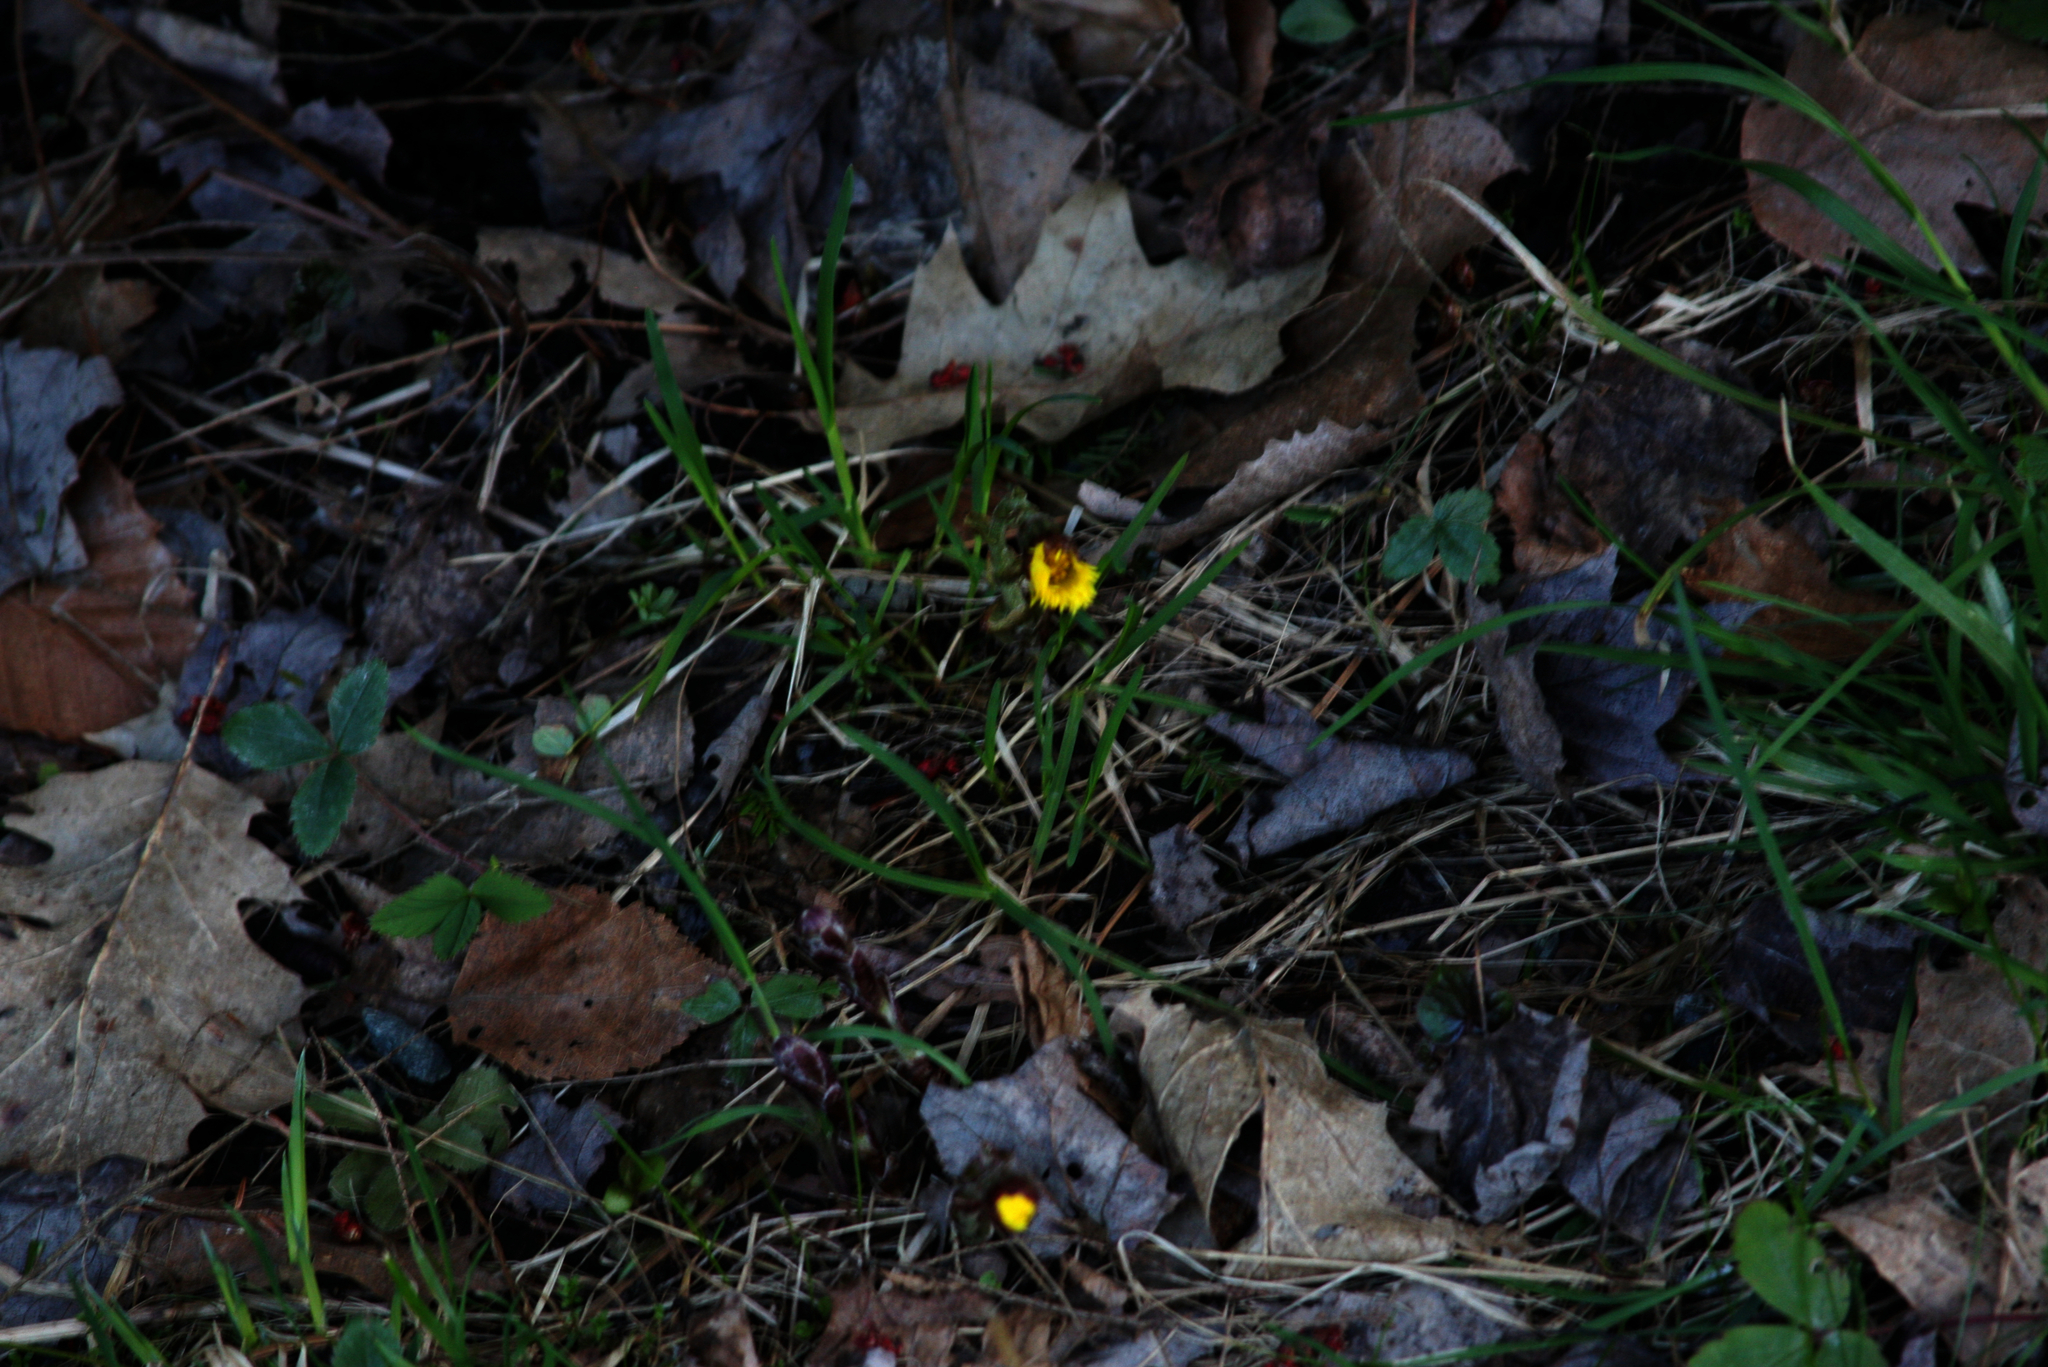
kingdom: Plantae
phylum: Tracheophyta
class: Magnoliopsida
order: Asterales
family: Asteraceae
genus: Tussilago
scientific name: Tussilago farfara
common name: Coltsfoot
